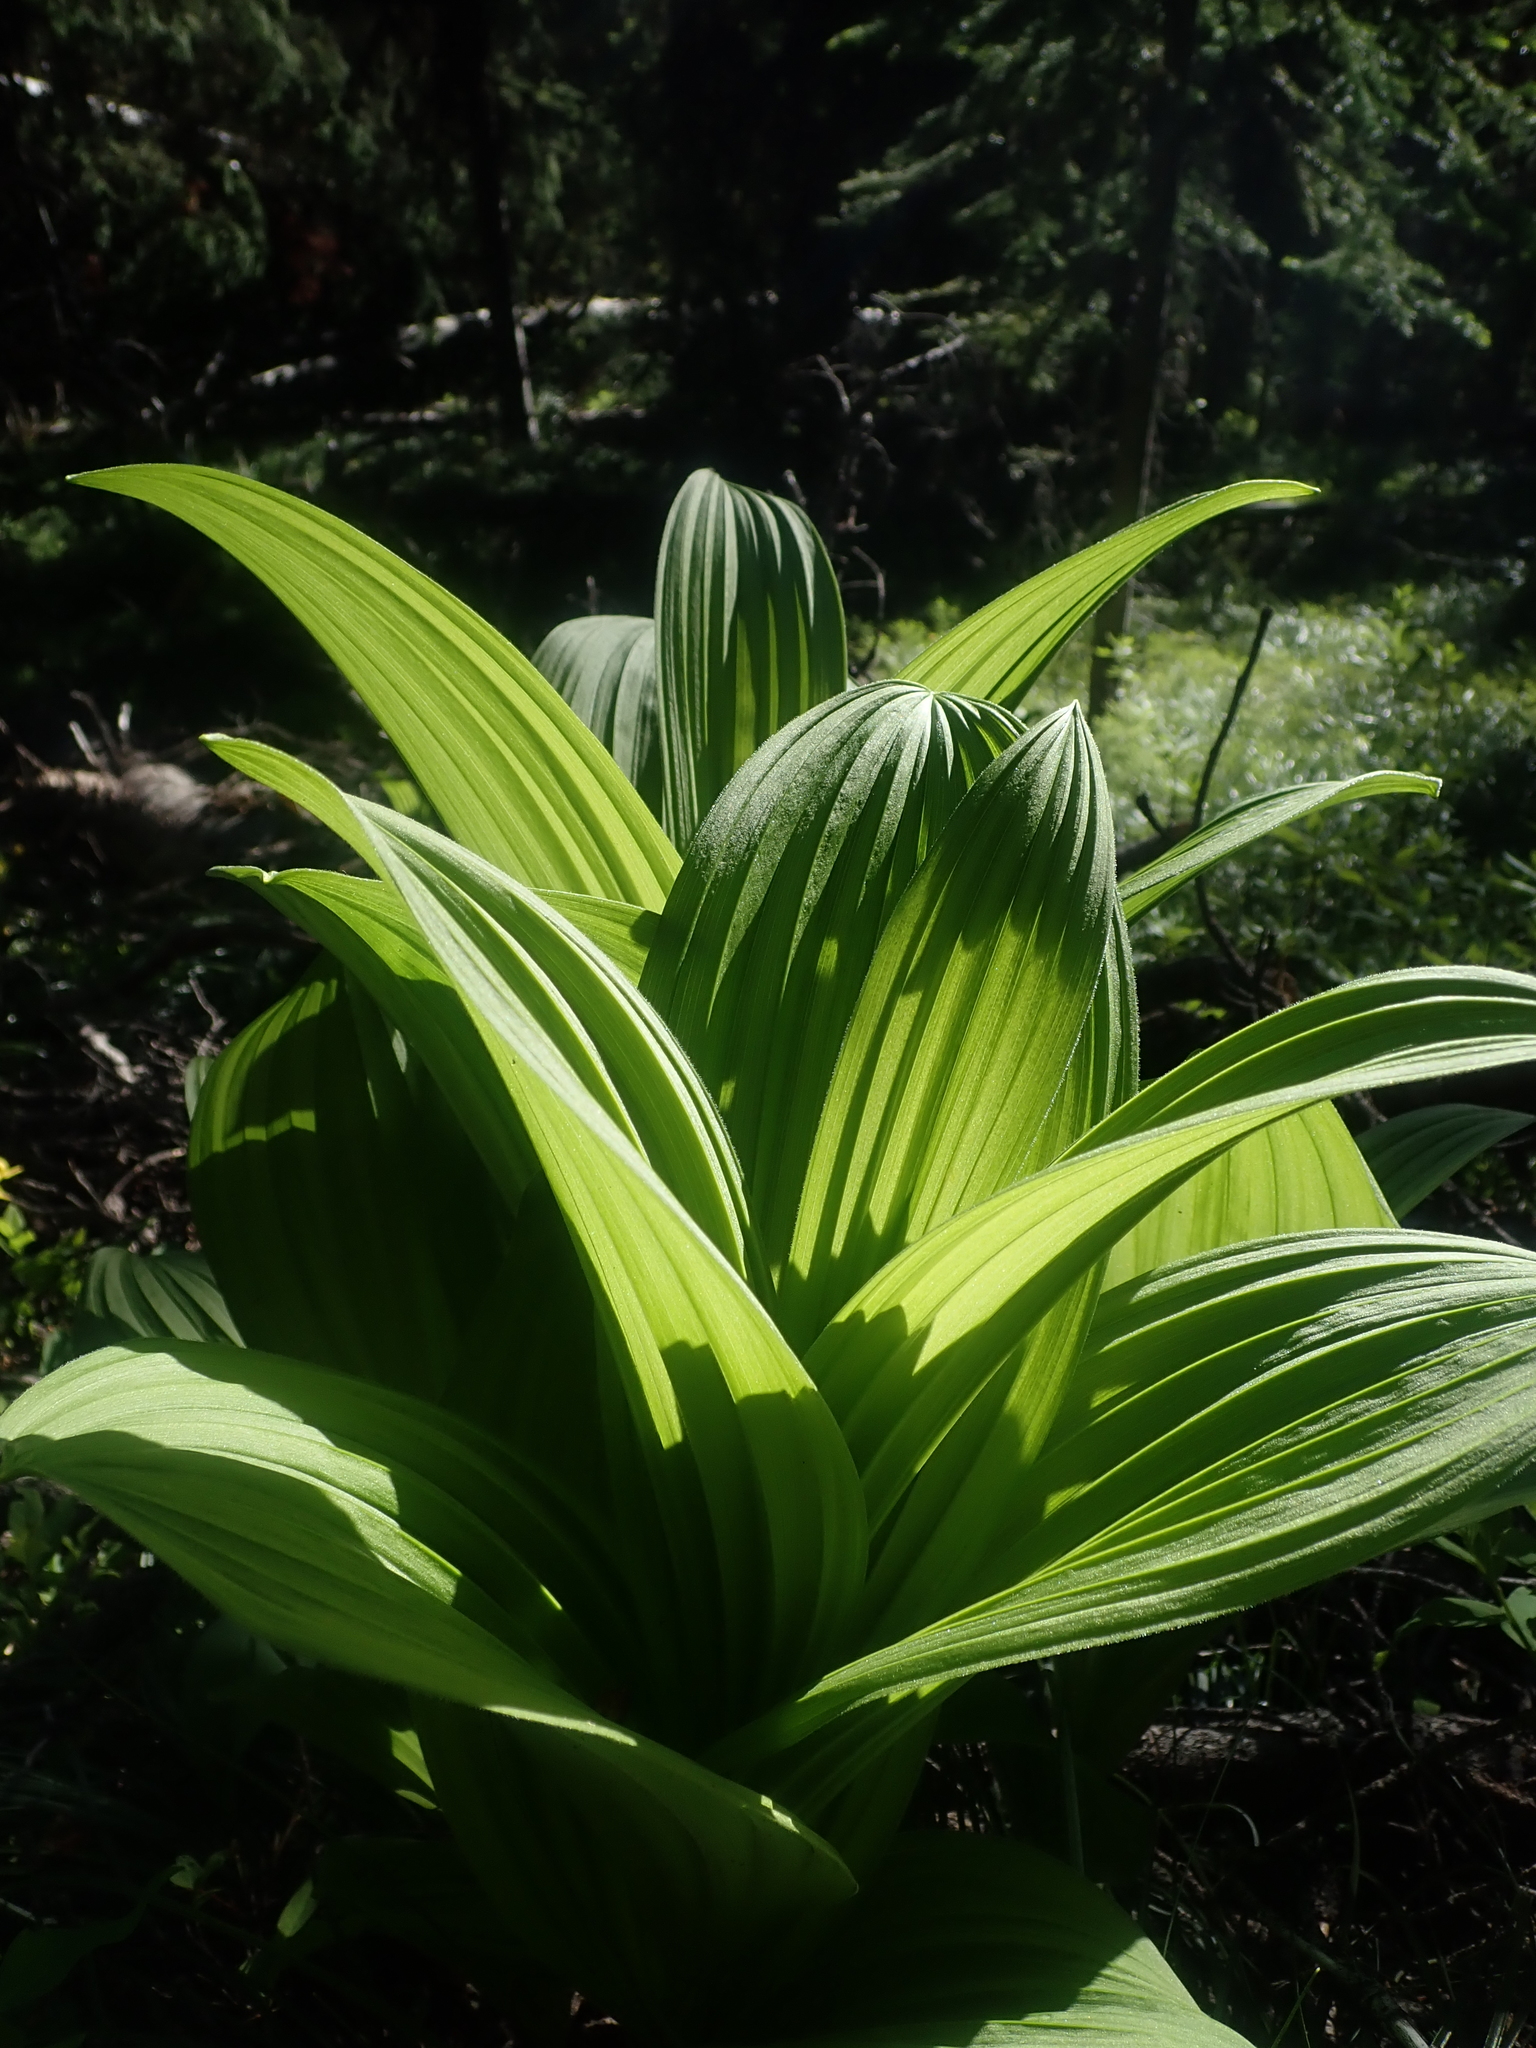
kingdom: Plantae
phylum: Tracheophyta
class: Liliopsida
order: Liliales
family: Melanthiaceae
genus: Veratrum
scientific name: Veratrum viride
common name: American false hellebore
